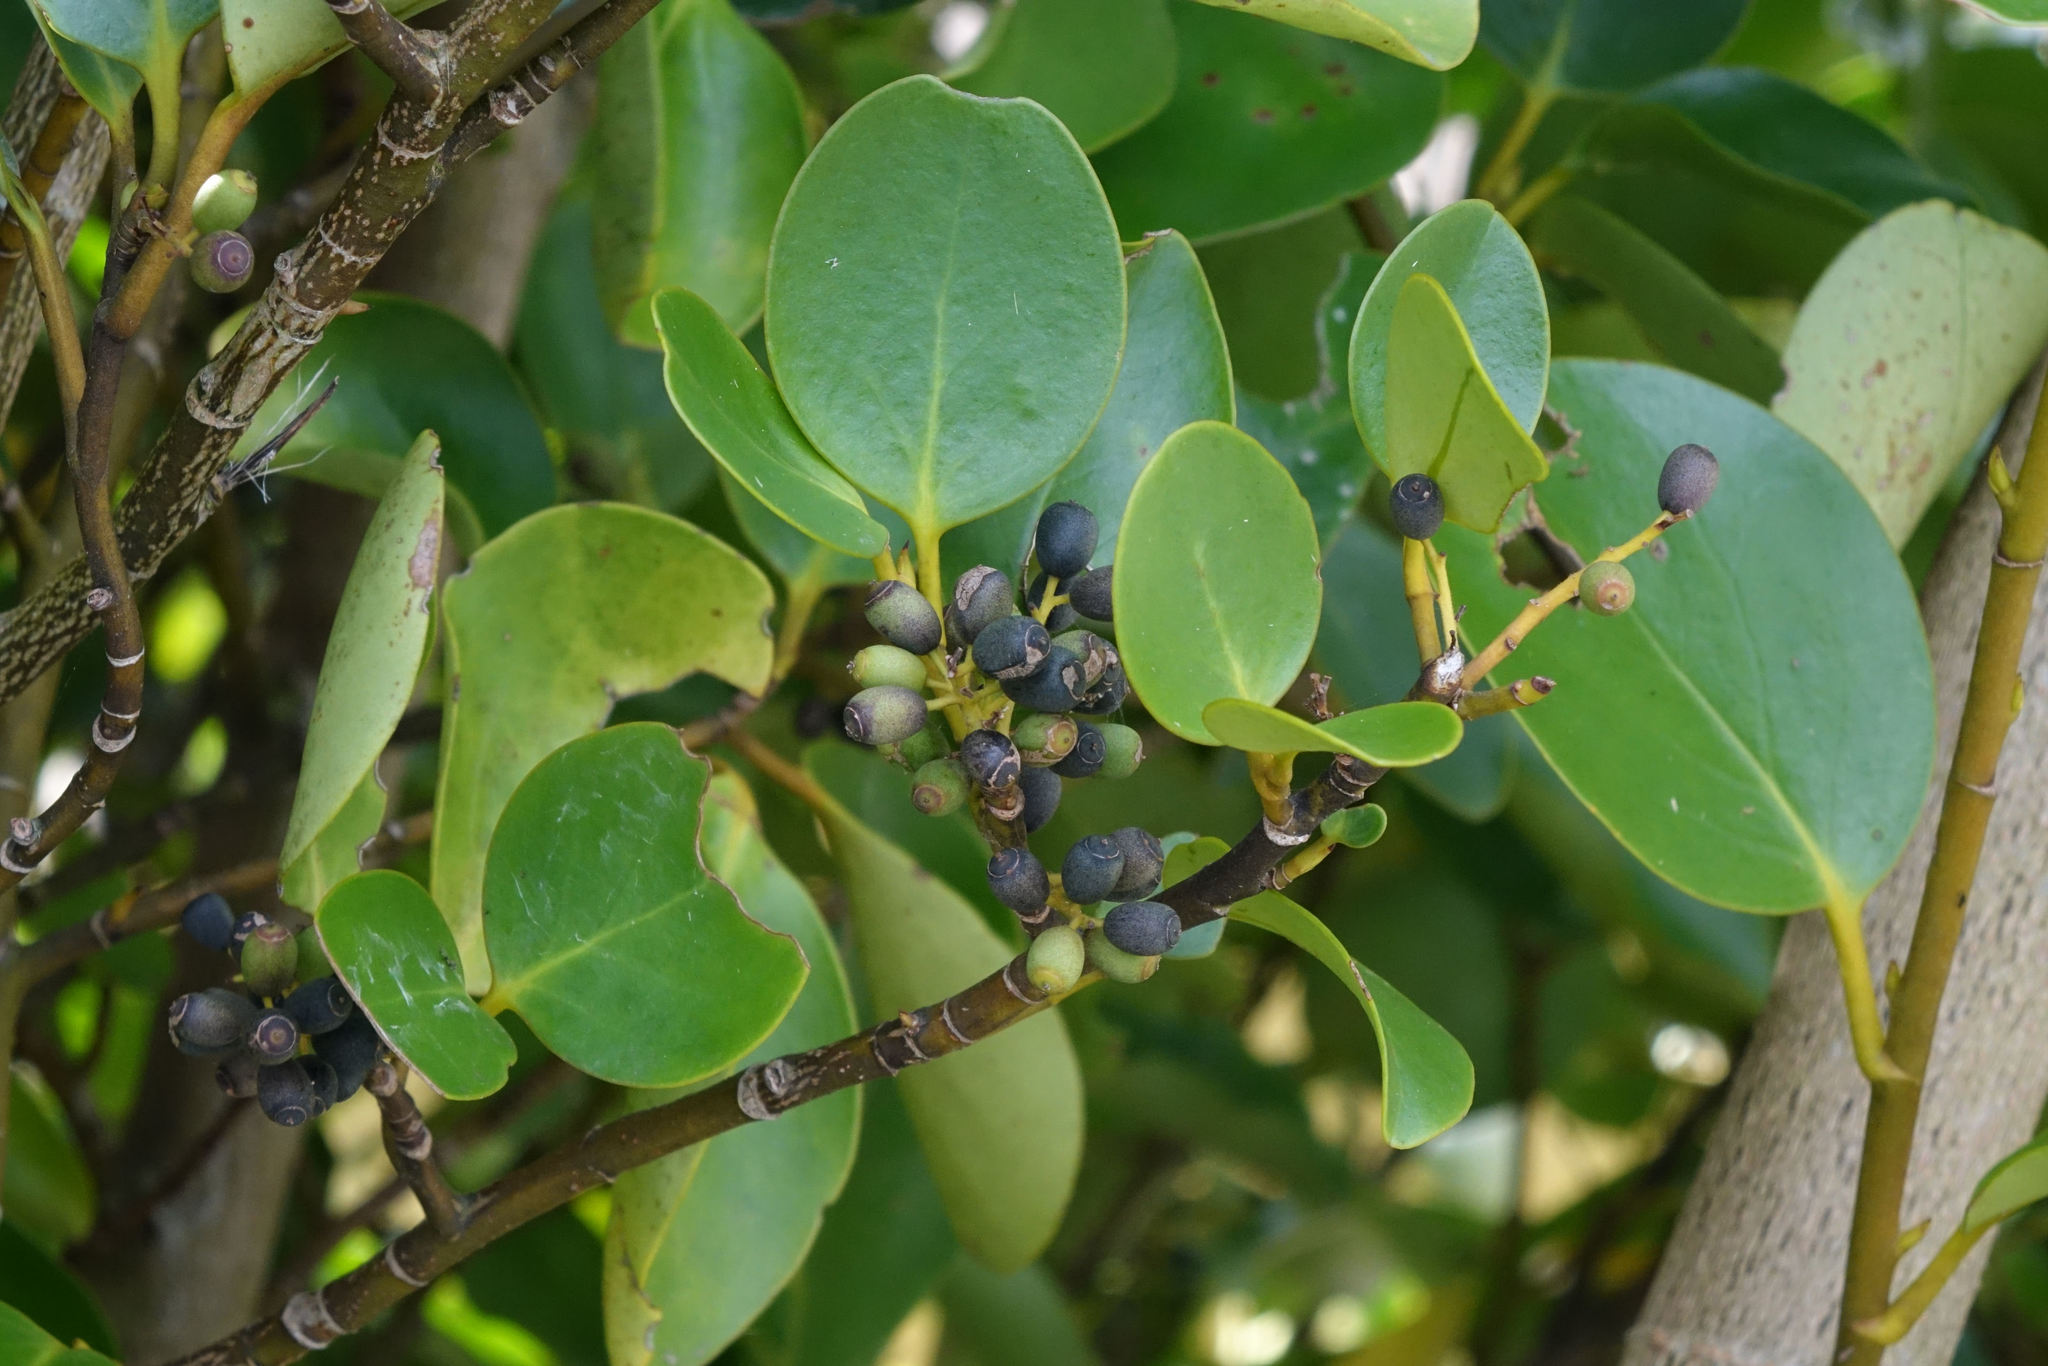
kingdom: Plantae
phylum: Tracheophyta
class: Magnoliopsida
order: Apiales
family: Griseliniaceae
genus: Griselinia
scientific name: Griselinia littoralis
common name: New zealand broadleaf
